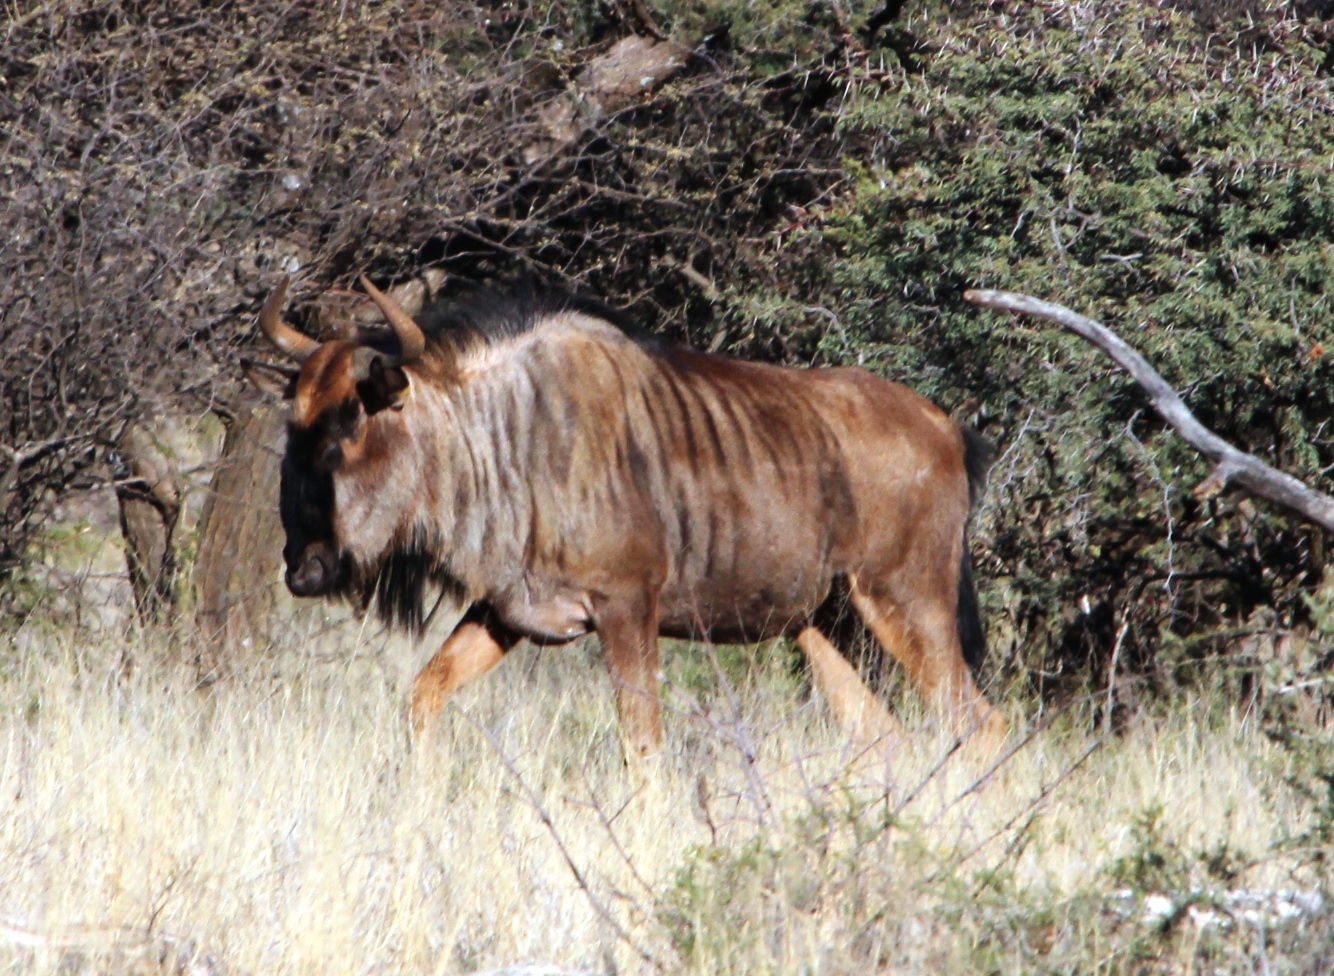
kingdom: Animalia
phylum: Chordata
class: Mammalia
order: Artiodactyla
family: Bovidae
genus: Connochaetes
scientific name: Connochaetes taurinus
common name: Blue wildebeest
